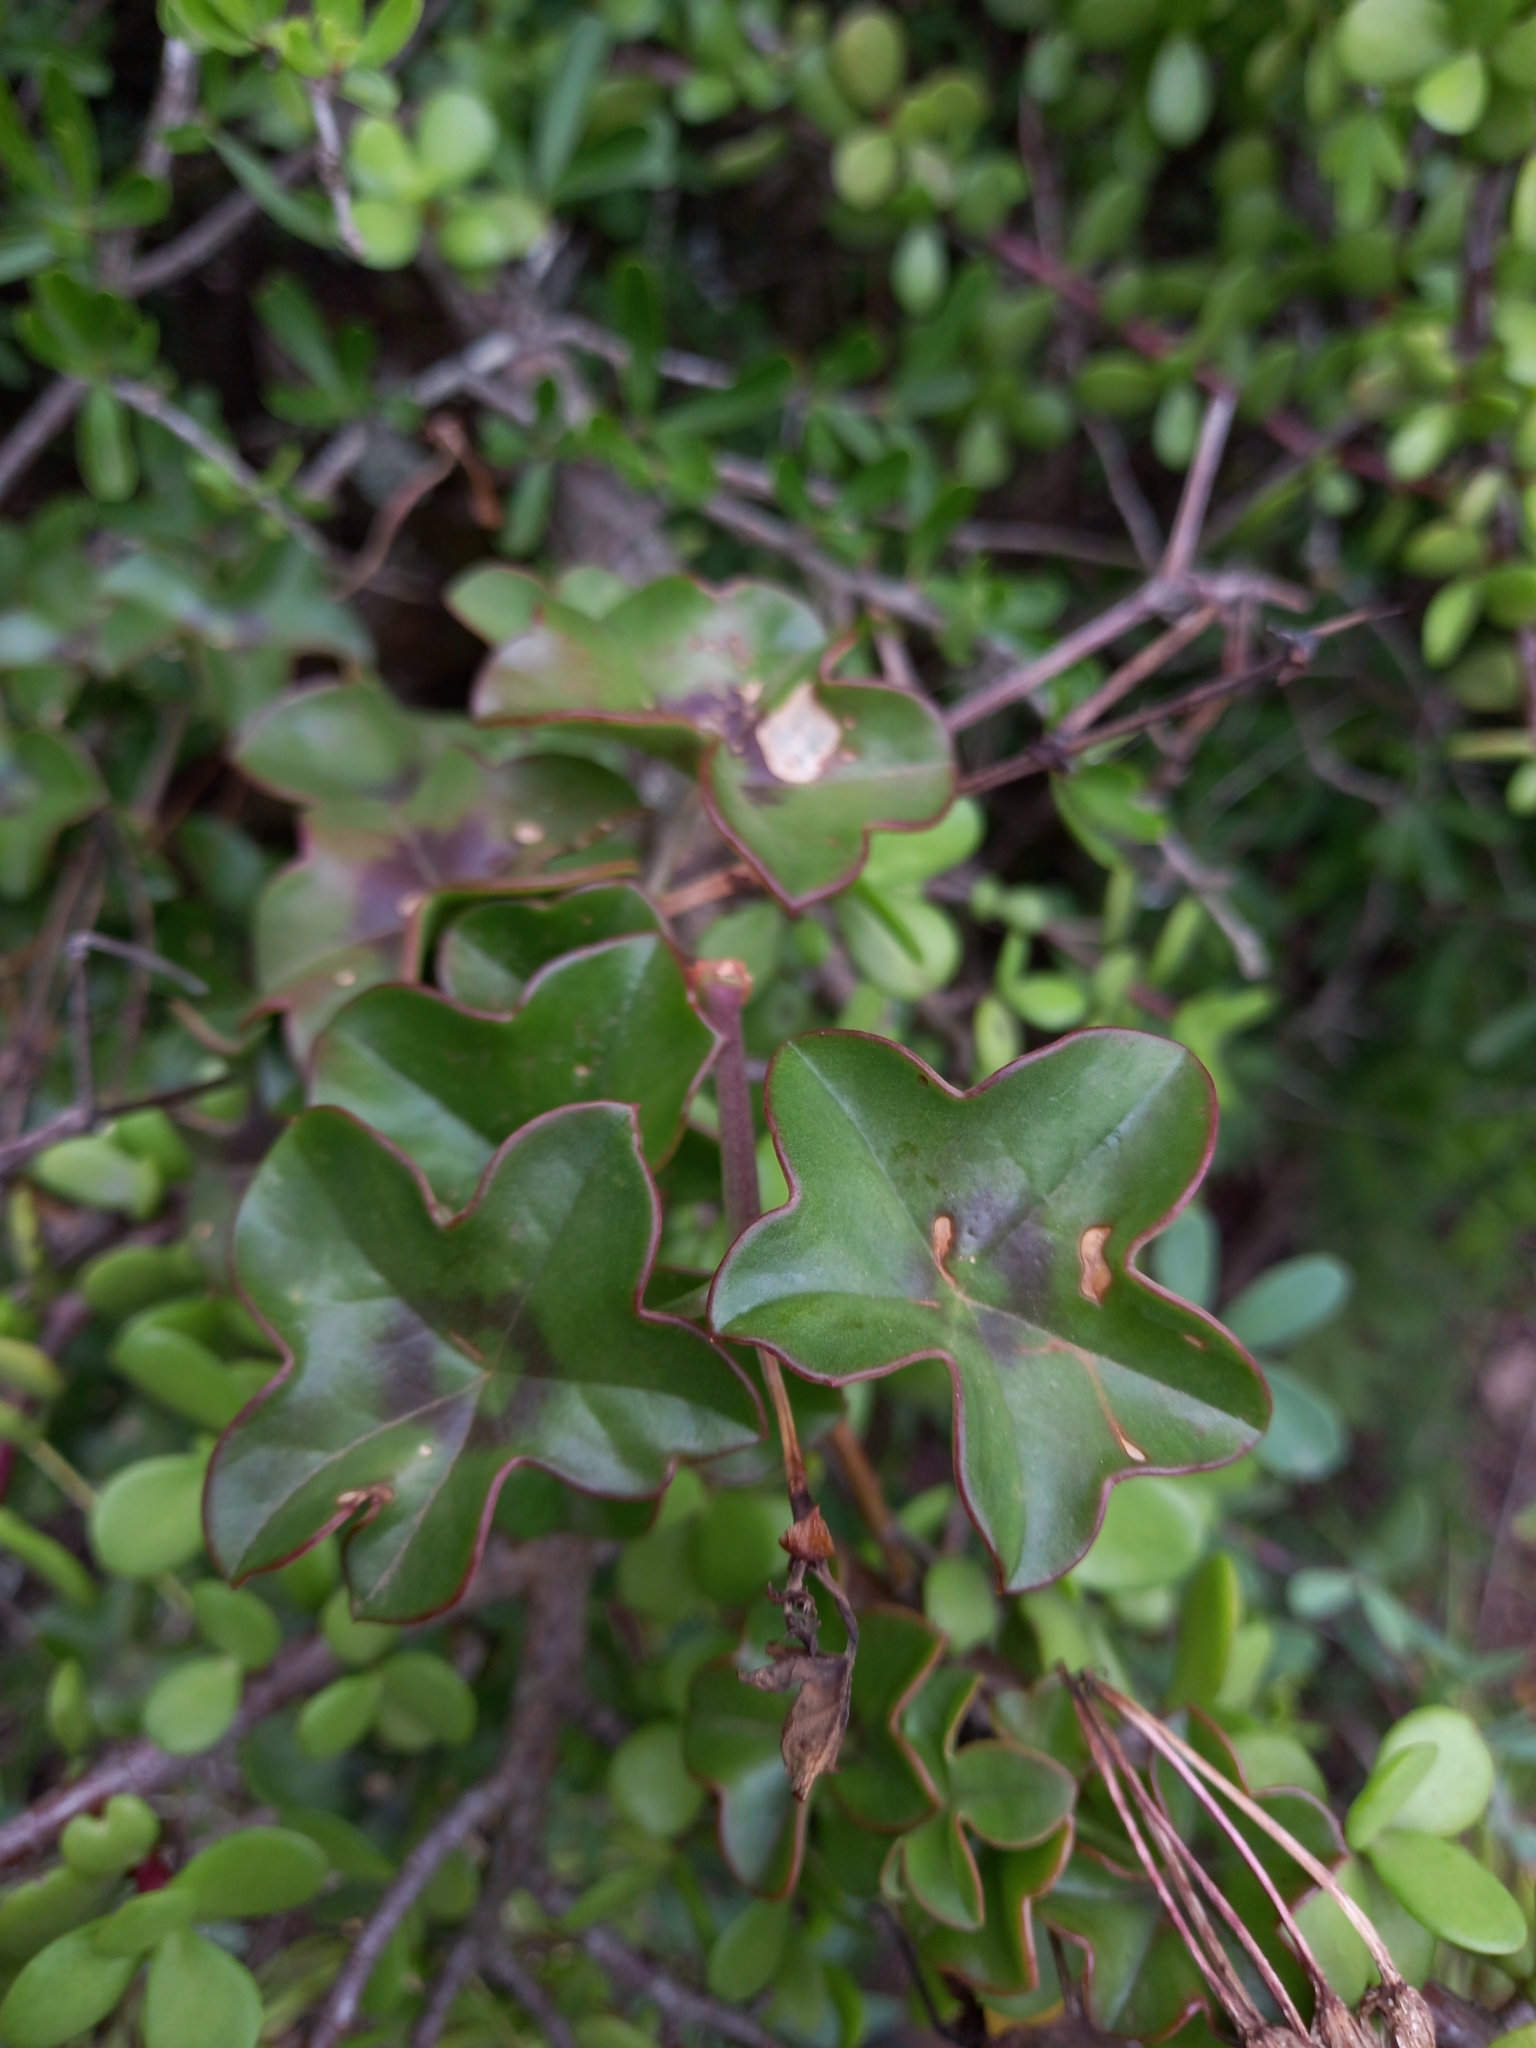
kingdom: Plantae
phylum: Tracheophyta
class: Magnoliopsida
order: Geraniales
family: Geraniaceae
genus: Pelargonium
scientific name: Pelargonium peltatum
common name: Ivyleaf geranium
